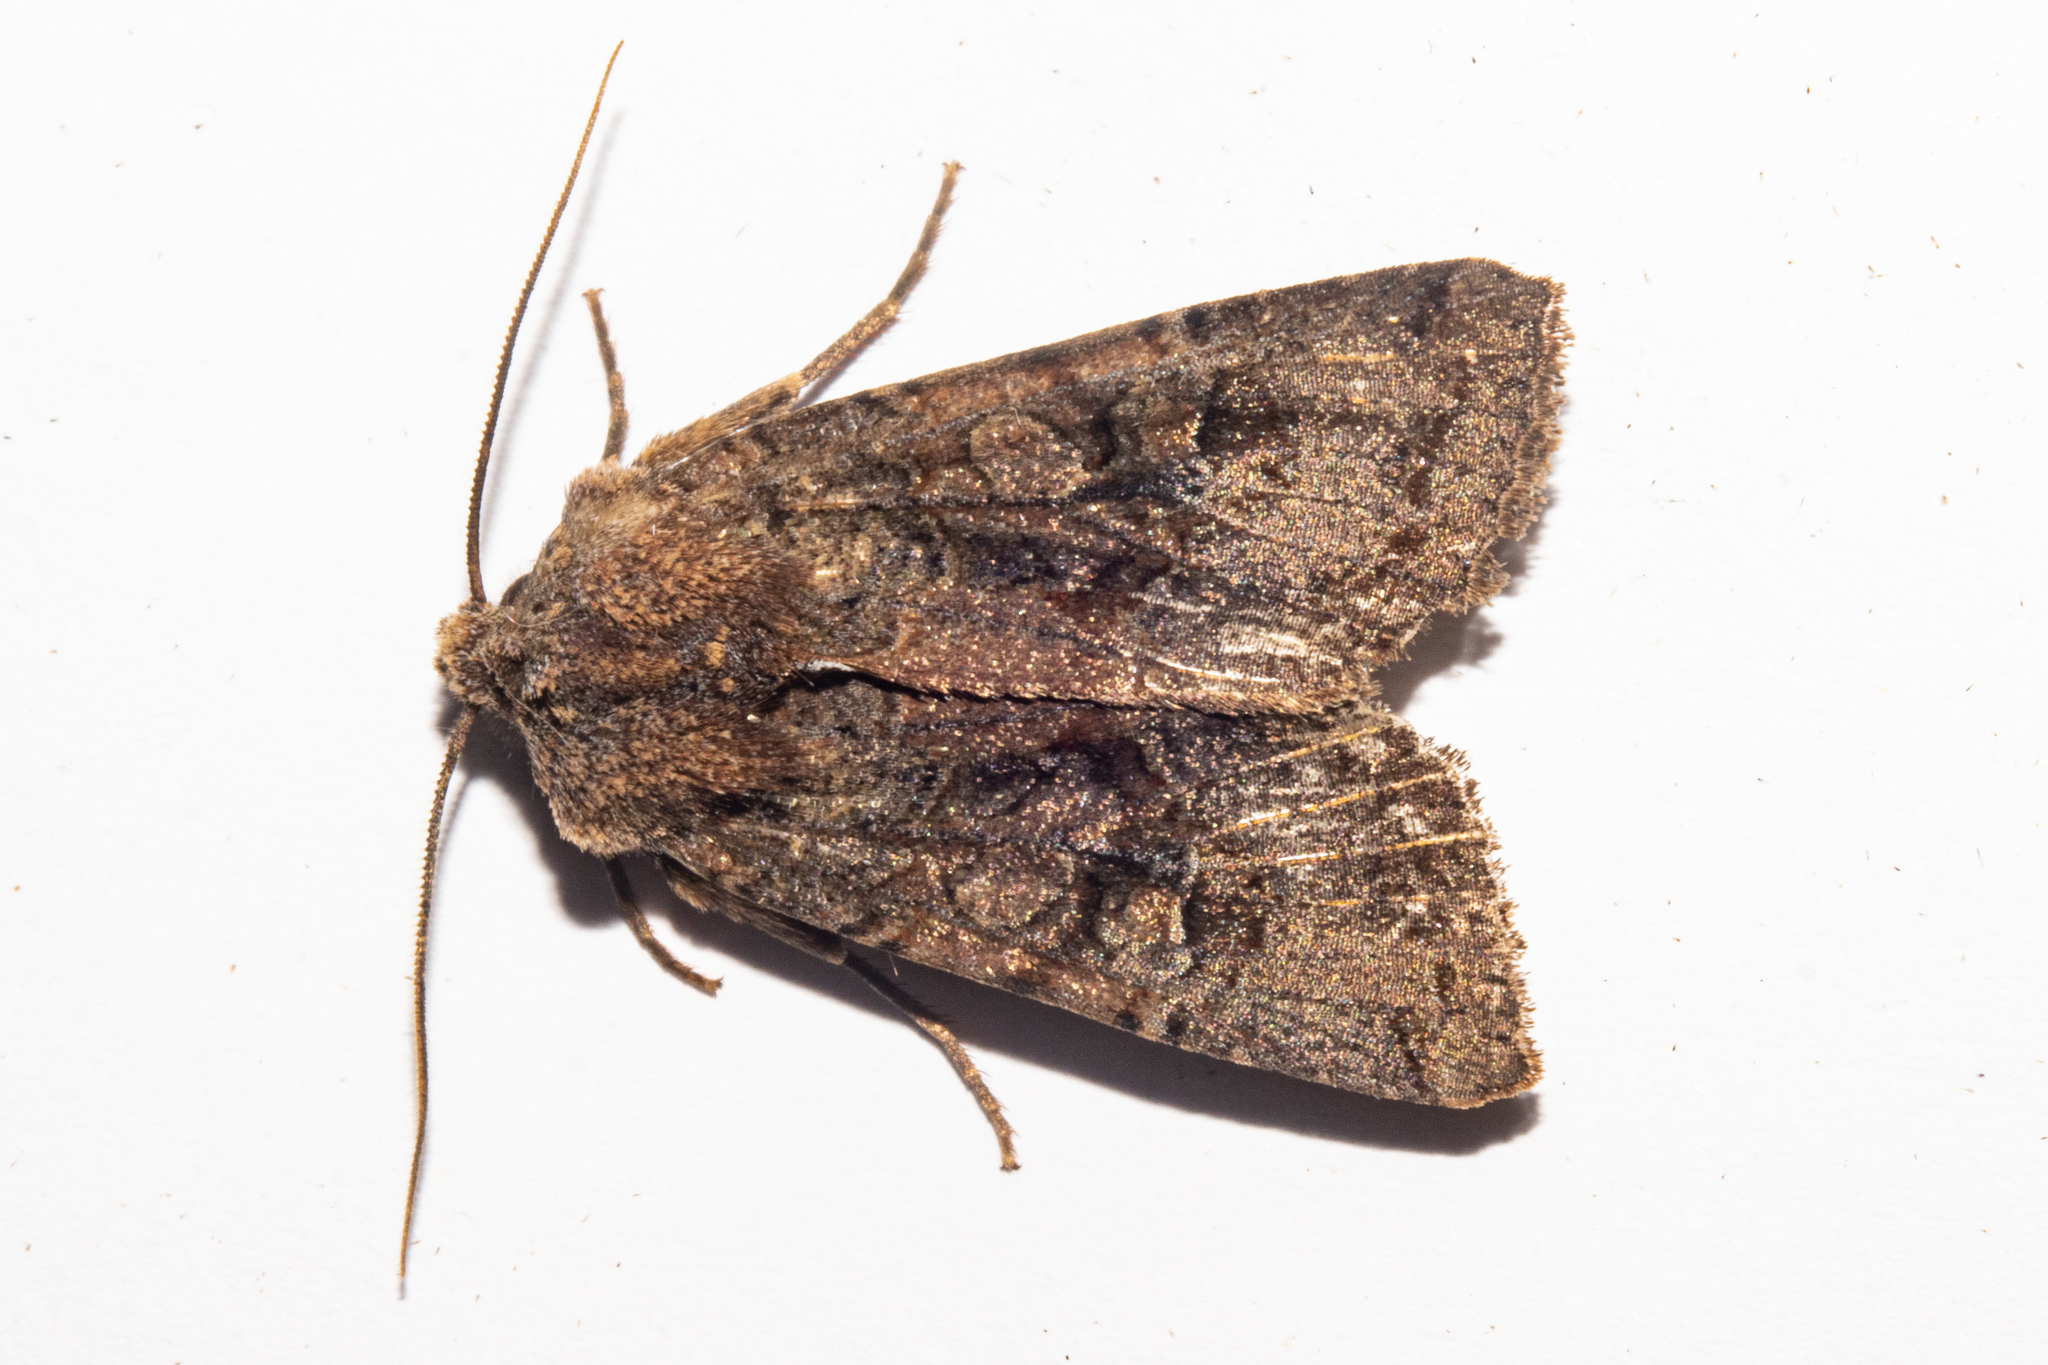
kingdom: Animalia
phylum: Arthropoda
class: Insecta
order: Lepidoptera
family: Noctuidae
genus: Meterana
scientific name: Meterana tartaraea
